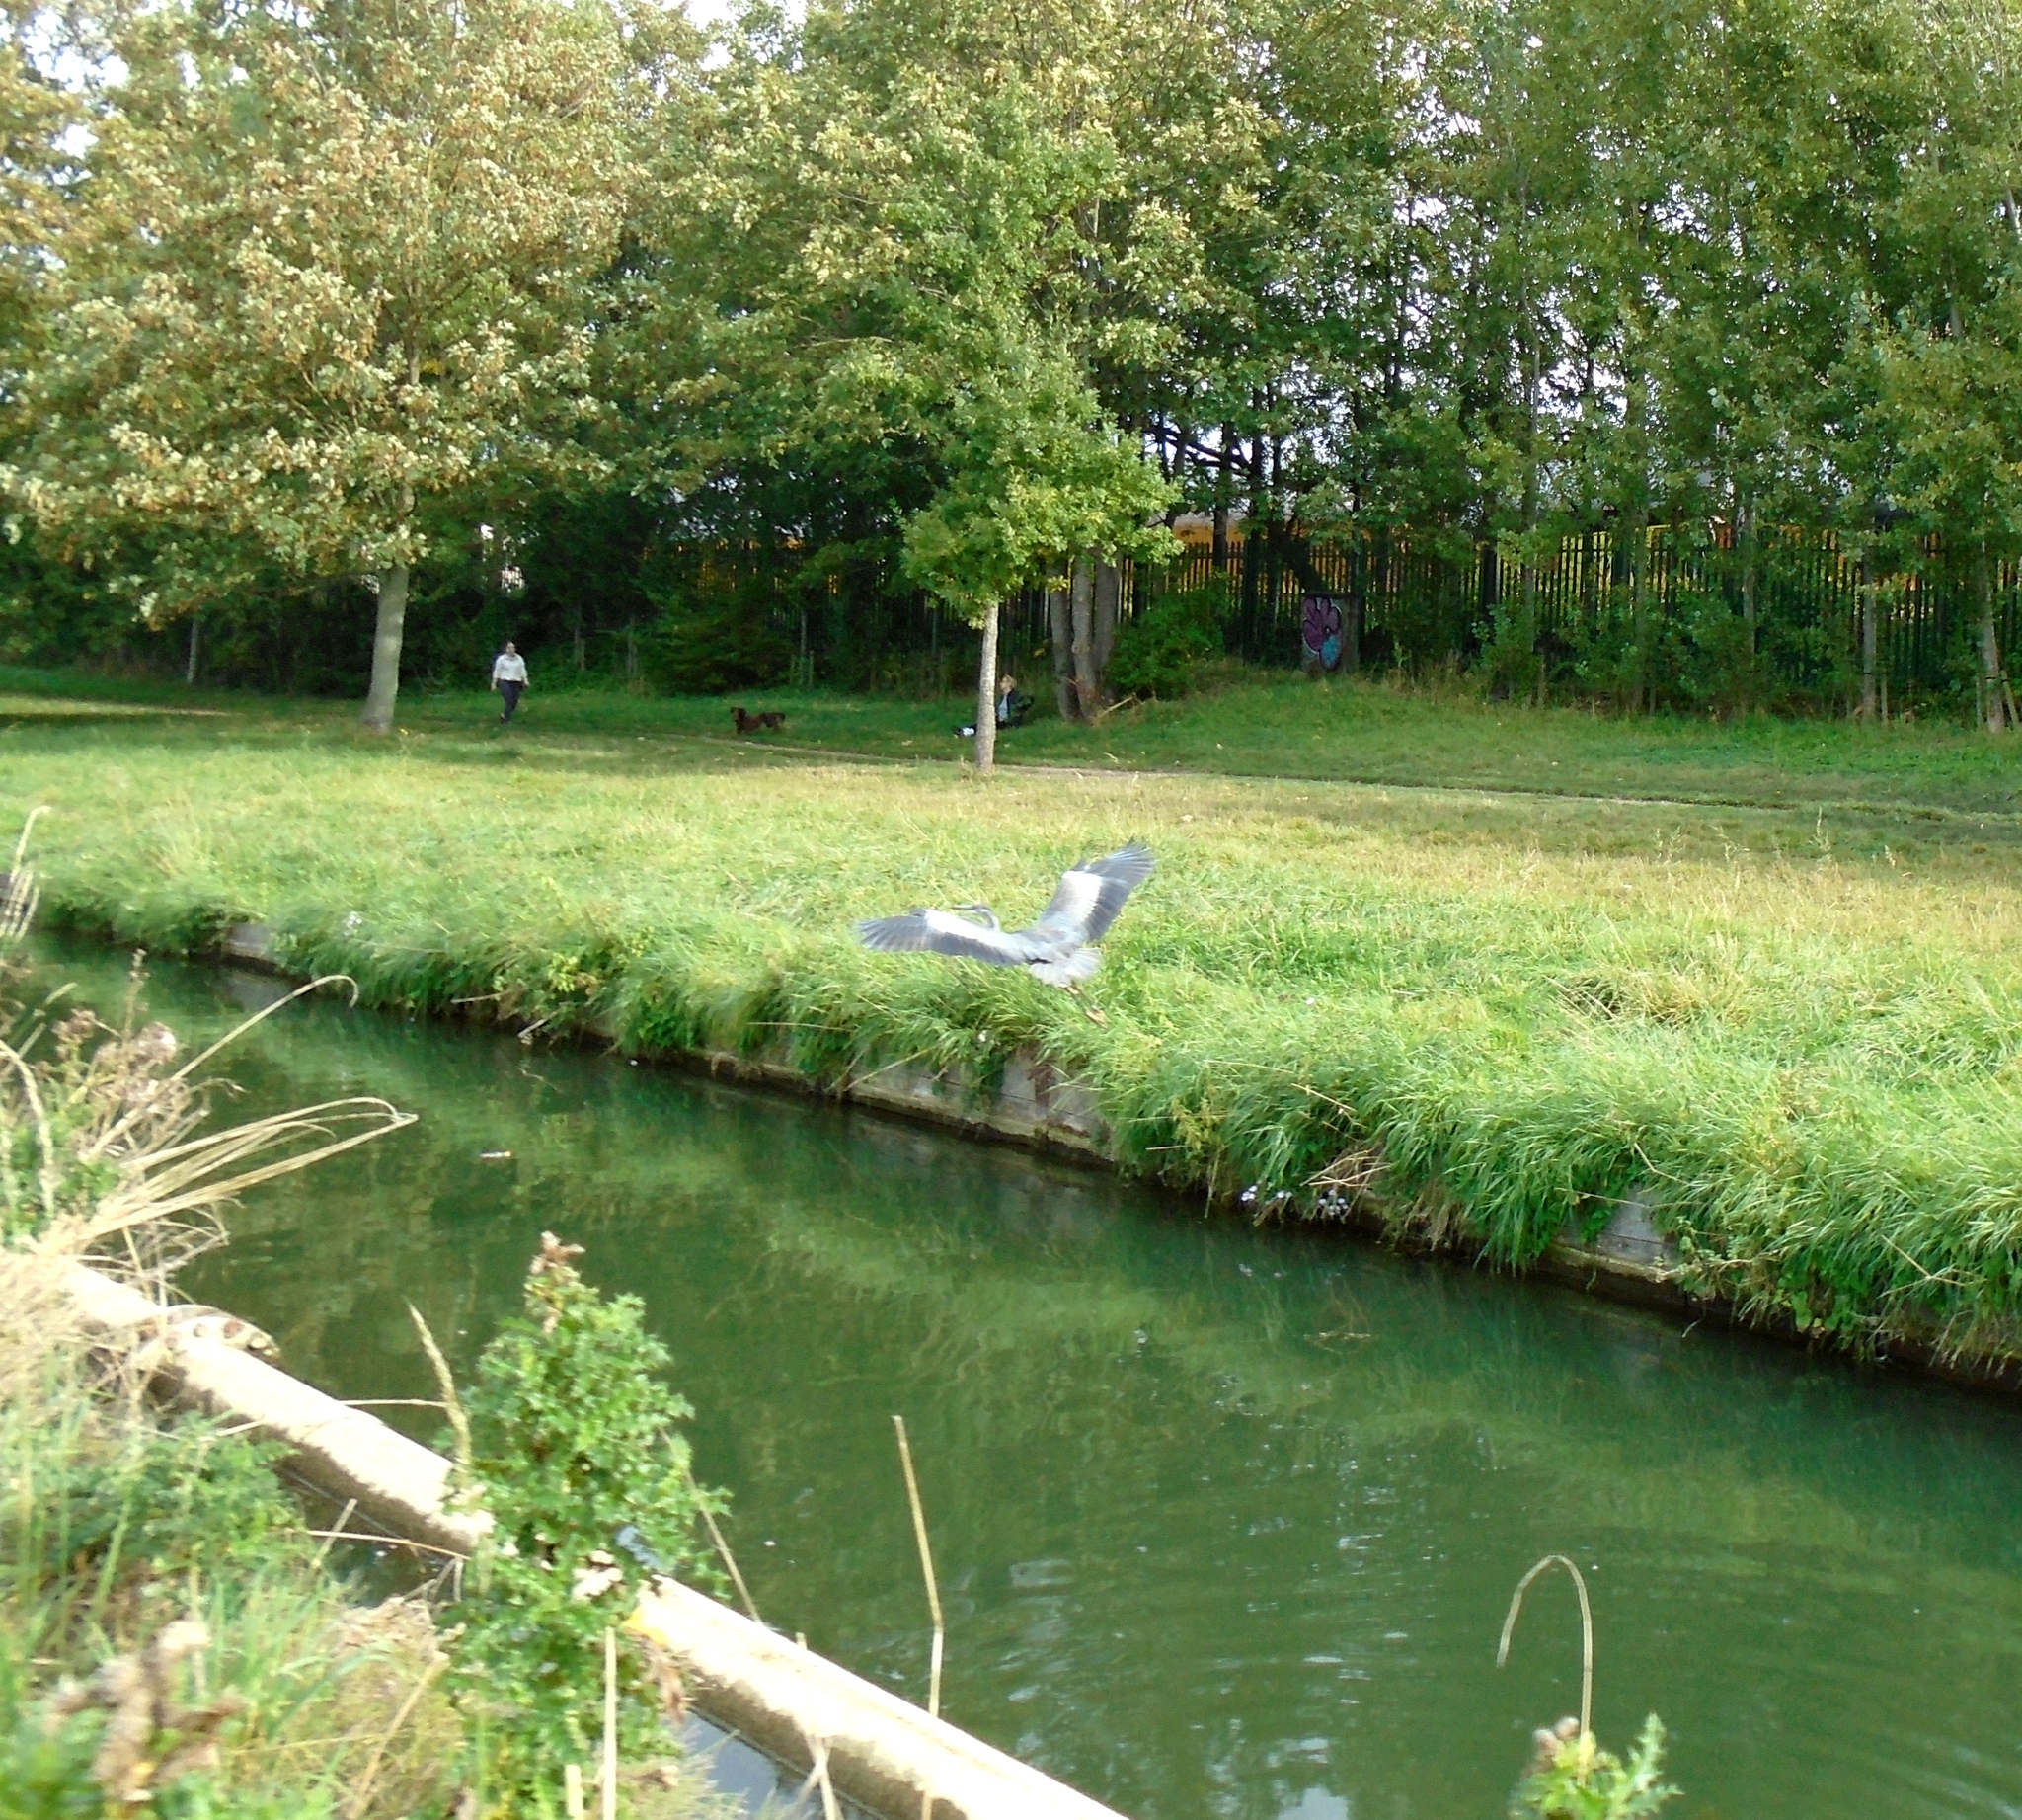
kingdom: Animalia
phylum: Chordata
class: Aves
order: Pelecaniformes
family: Ardeidae
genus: Ardea
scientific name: Ardea cinerea
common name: Grey heron
